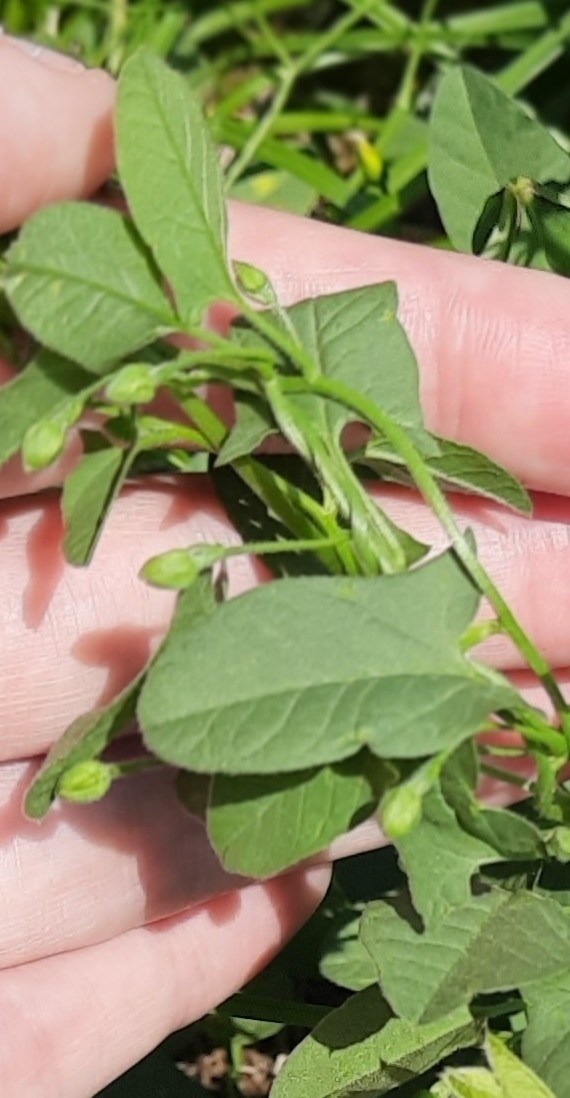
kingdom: Plantae
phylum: Tracheophyta
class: Magnoliopsida
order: Solanales
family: Convolvulaceae
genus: Convolvulus
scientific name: Convolvulus arvensis
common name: Field bindweed
